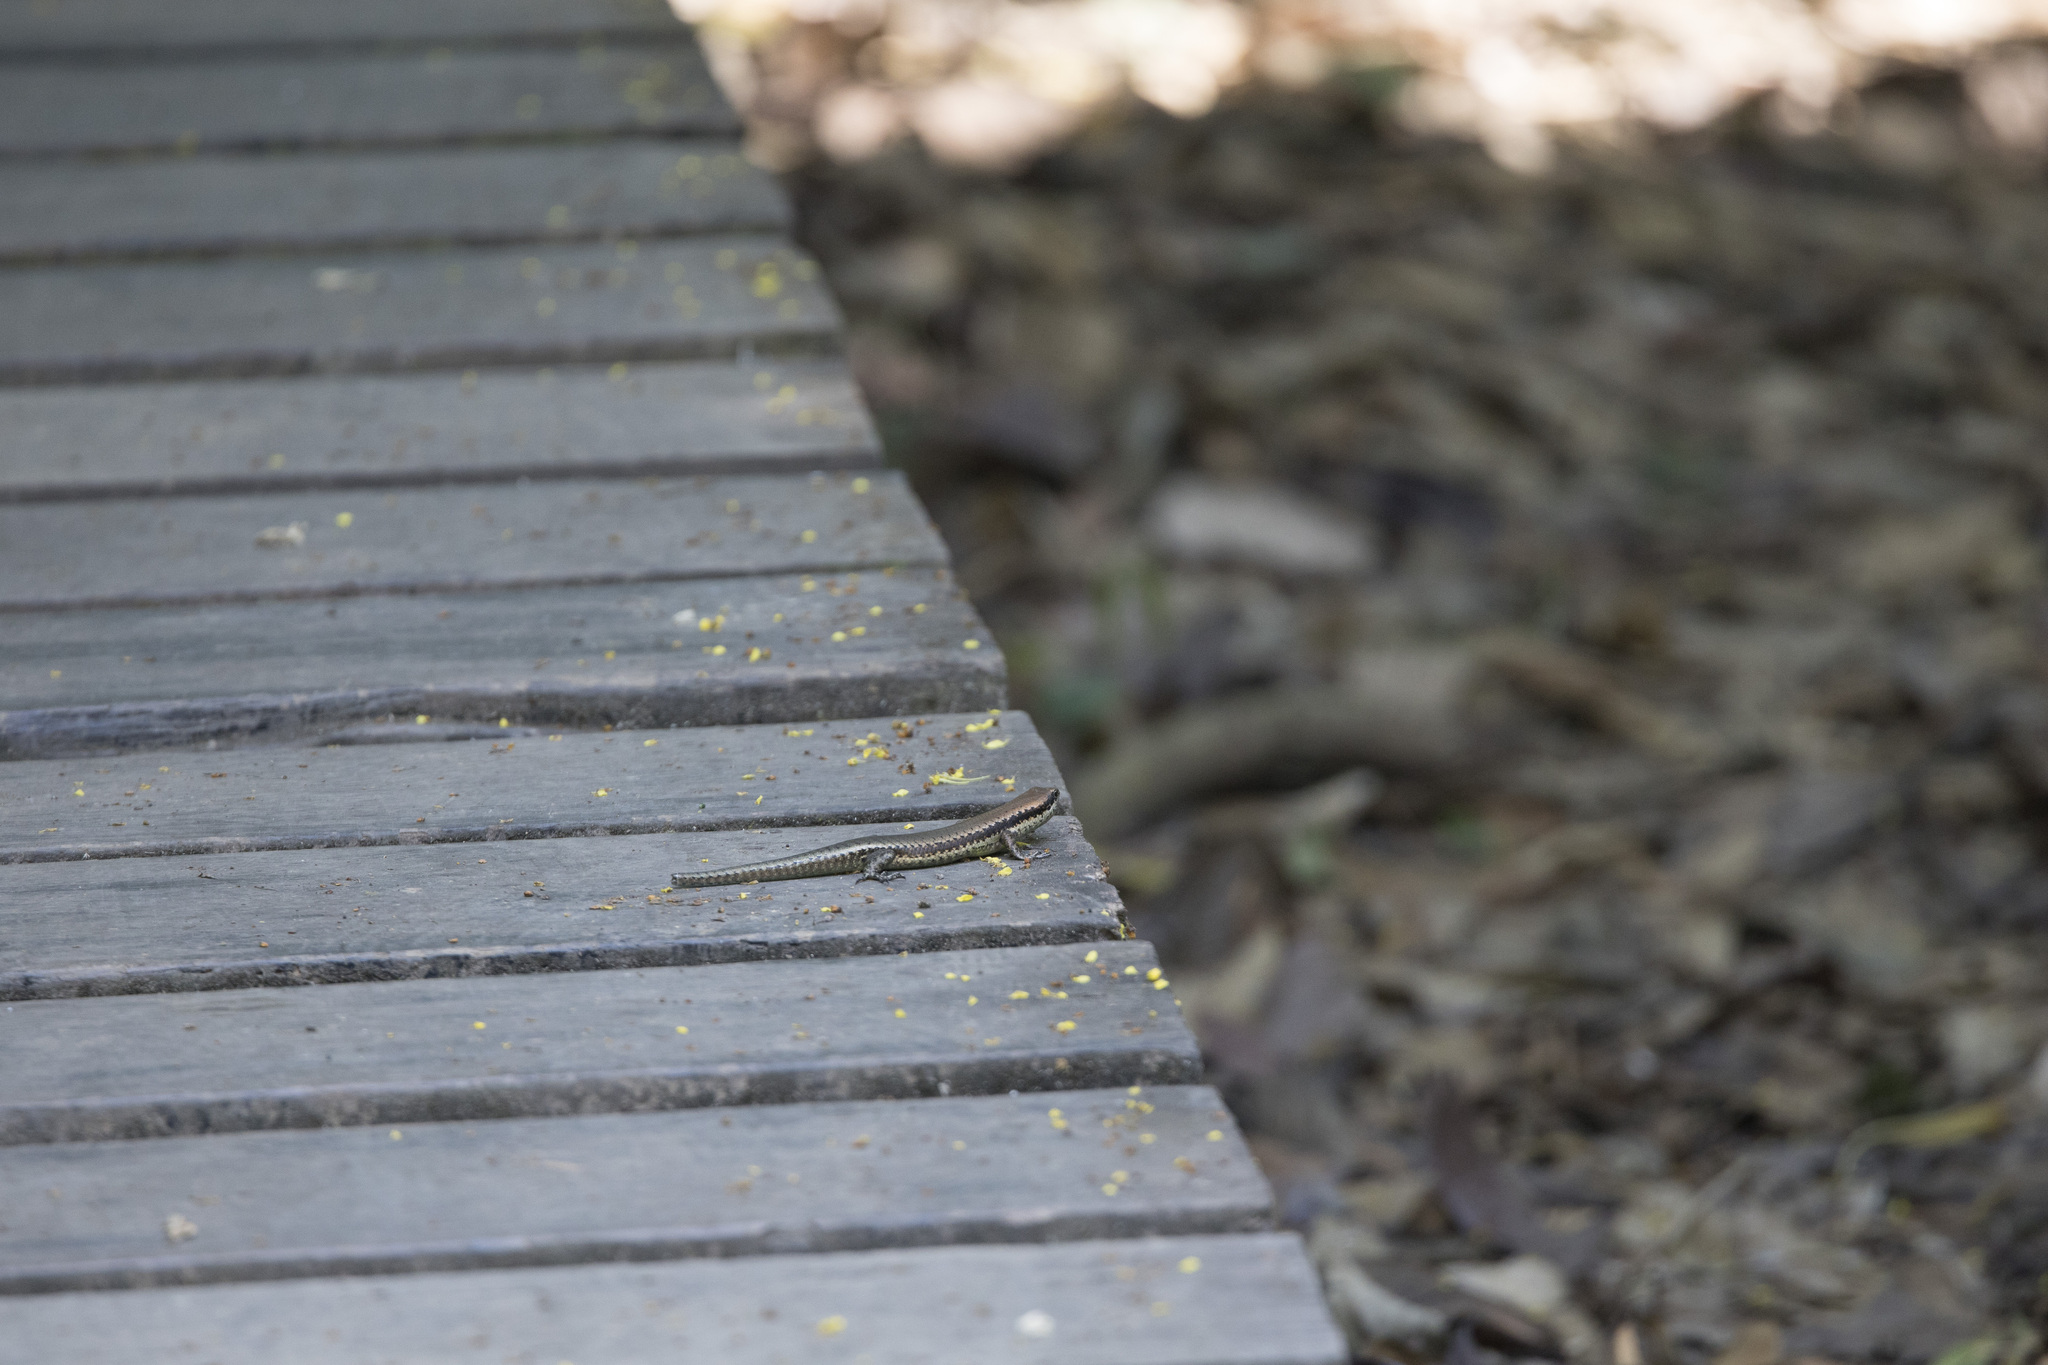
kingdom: Animalia
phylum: Chordata
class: Squamata
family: Scincidae
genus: Copeoglossum
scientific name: Copeoglossum nigropunctatum
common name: Black-spotted skink
